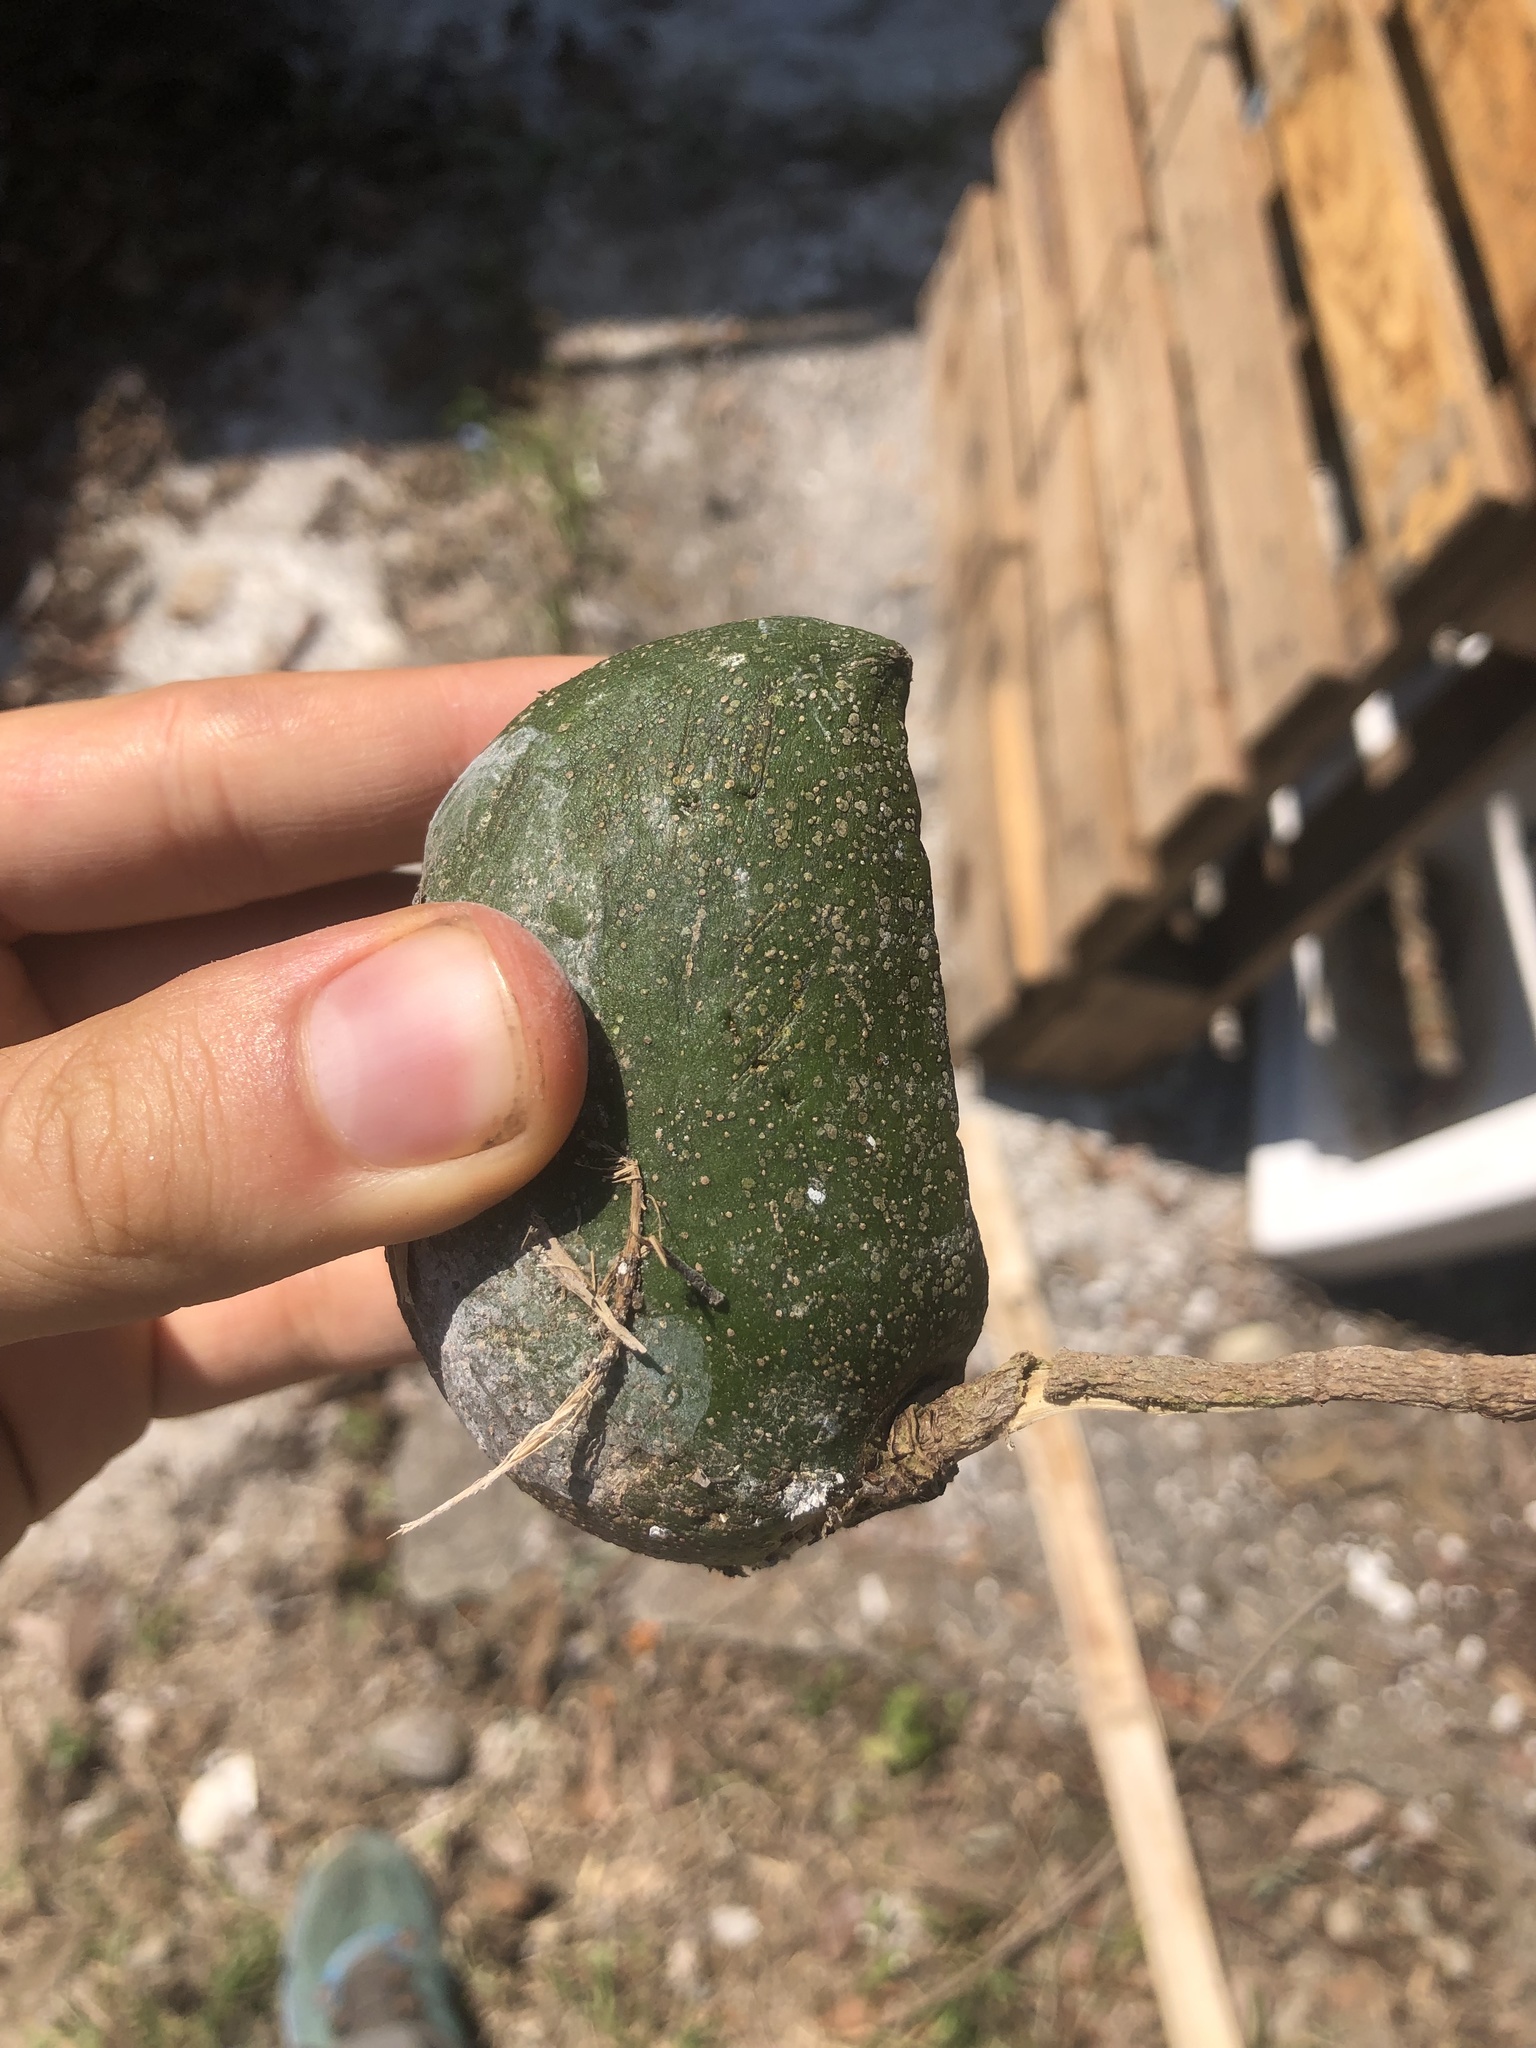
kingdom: Plantae
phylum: Tracheophyta
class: Magnoliopsida
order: Gentianales
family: Apocynaceae
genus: Tabernaemontana
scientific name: Tabernaemontana donnell-smithii
